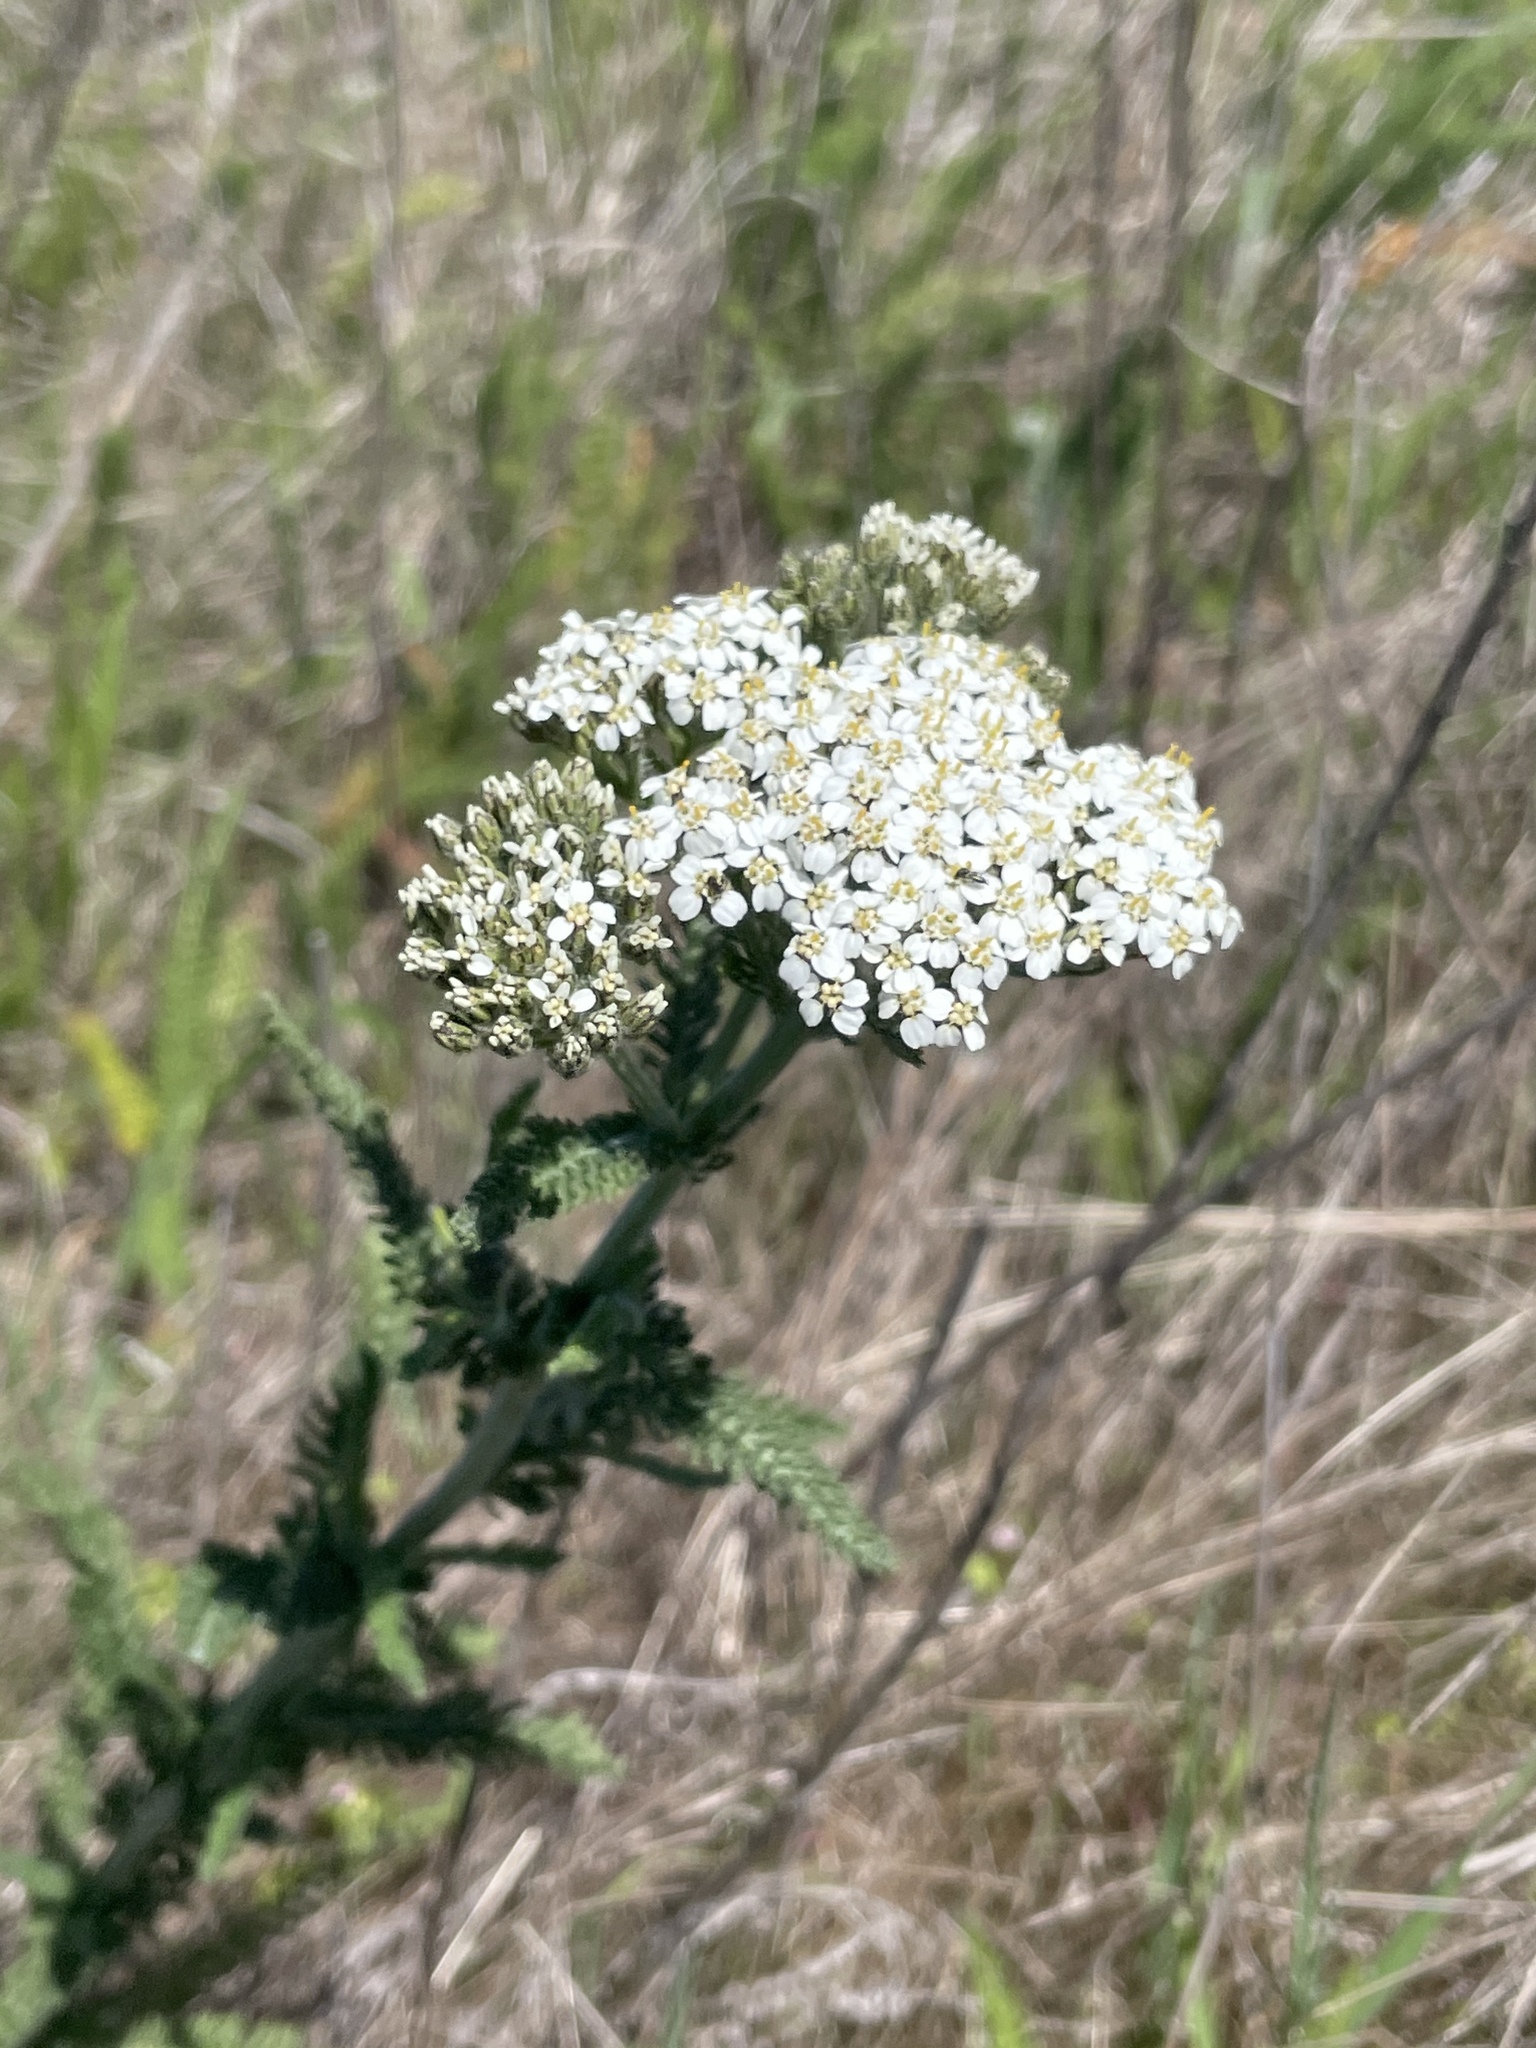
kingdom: Plantae
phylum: Tracheophyta
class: Magnoliopsida
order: Asterales
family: Asteraceae
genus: Achillea
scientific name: Achillea millefolium
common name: Yarrow
